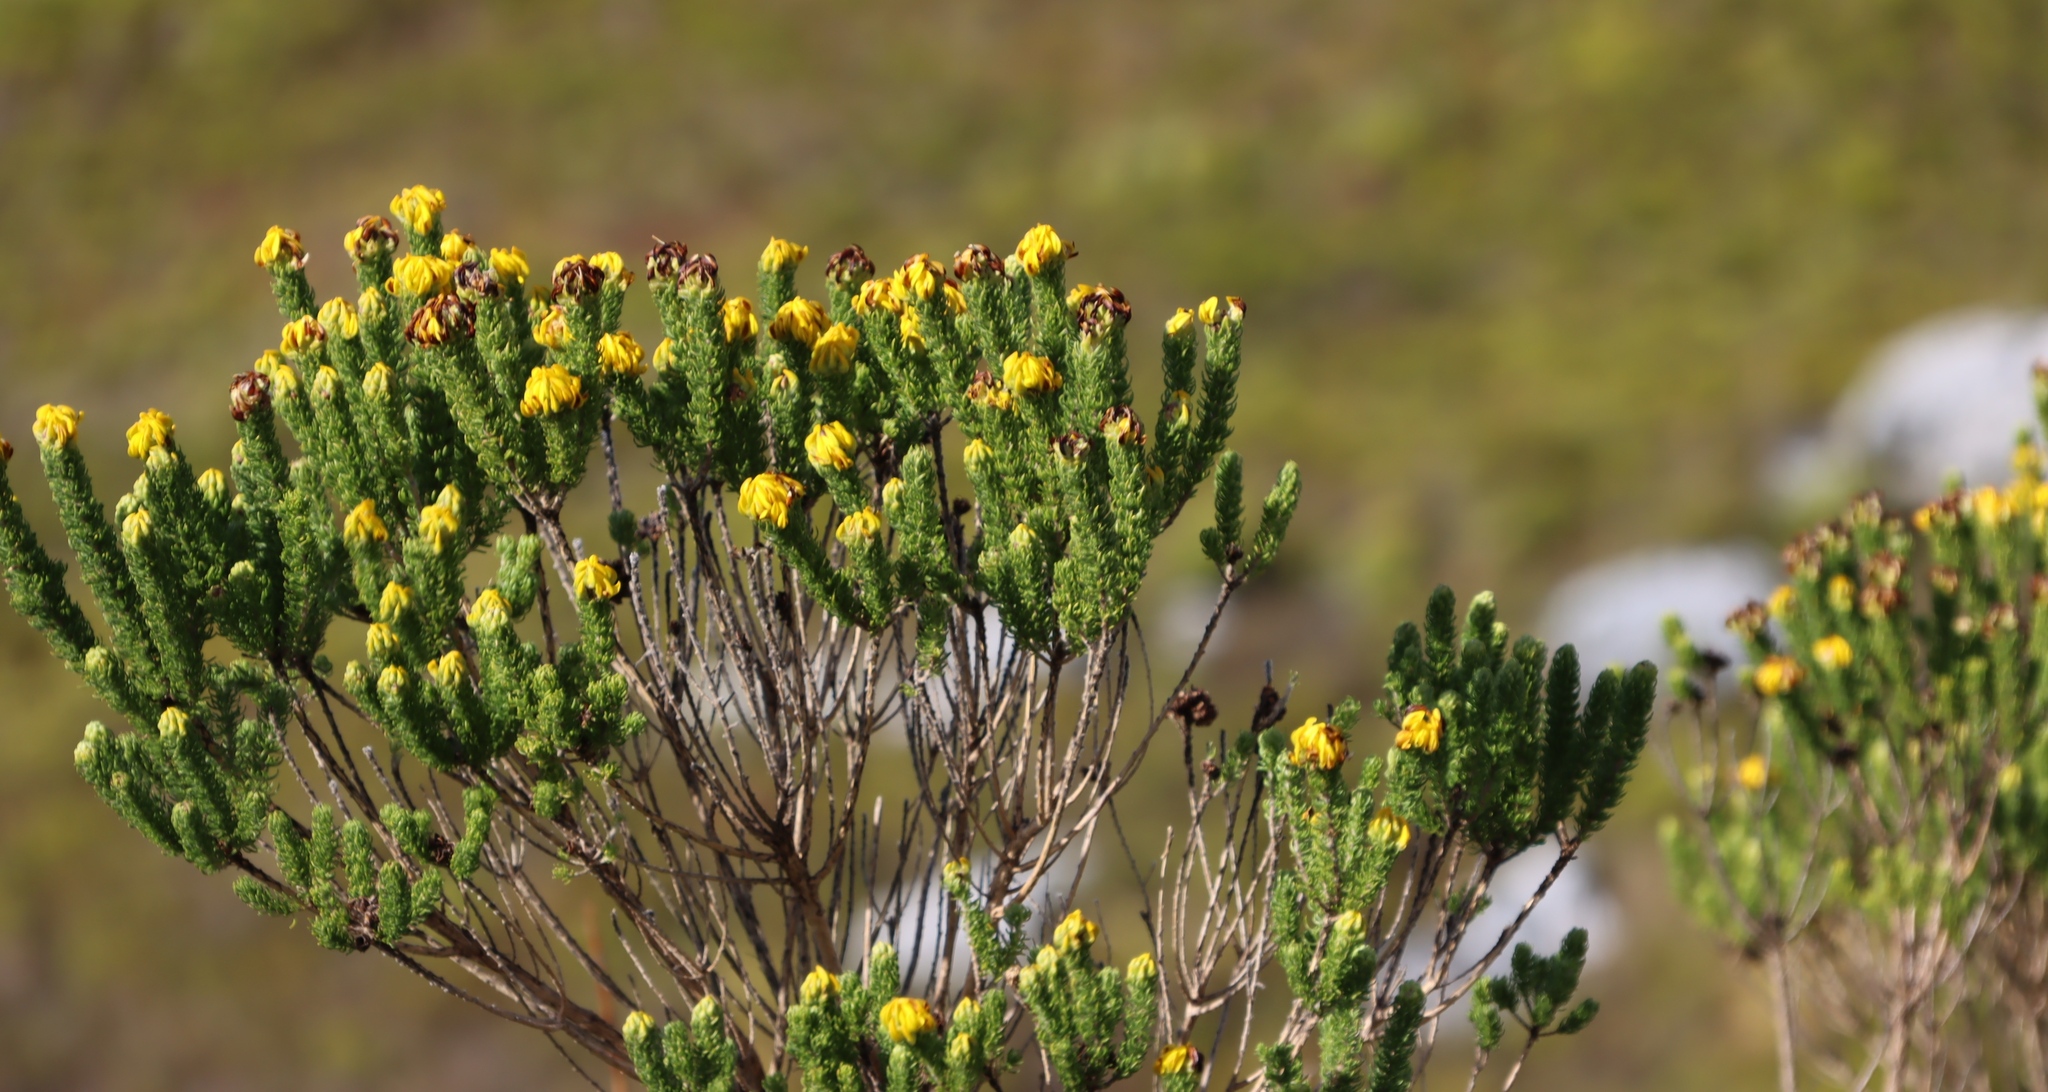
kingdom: Plantae
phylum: Tracheophyta
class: Magnoliopsida
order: Fabales
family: Fabaceae
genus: Aspalathus
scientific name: Aspalathus capitata
